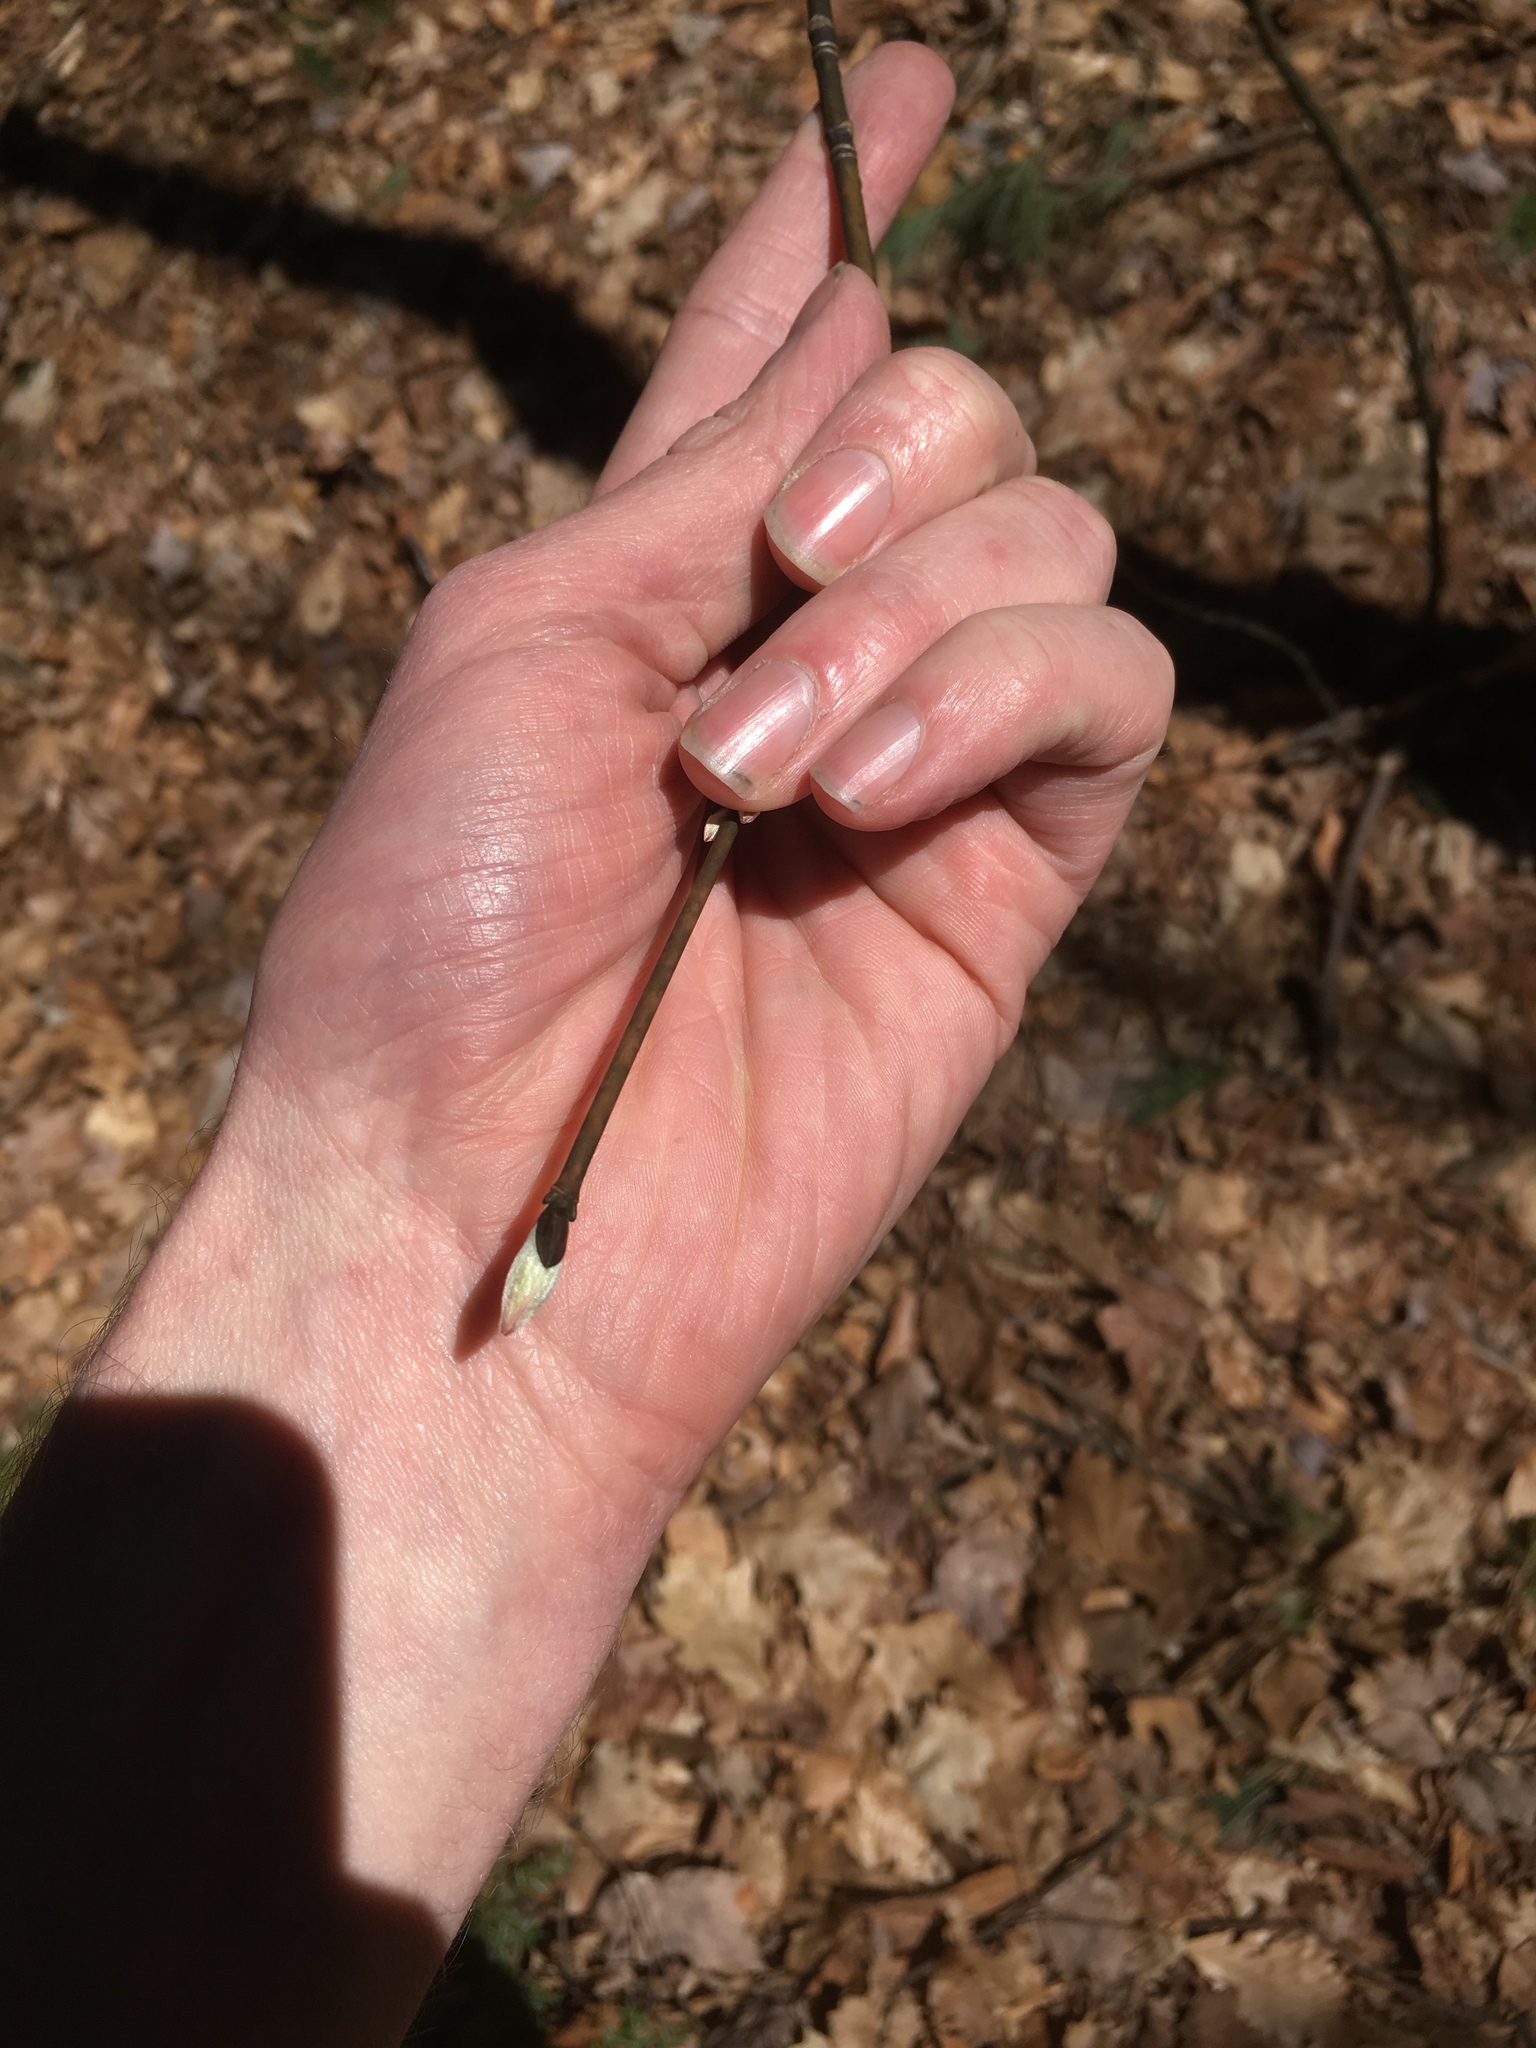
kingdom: Plantae
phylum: Tracheophyta
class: Magnoliopsida
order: Sapindales
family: Sapindaceae
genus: Acer
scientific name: Acer pensylvanicum
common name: Moosewood
